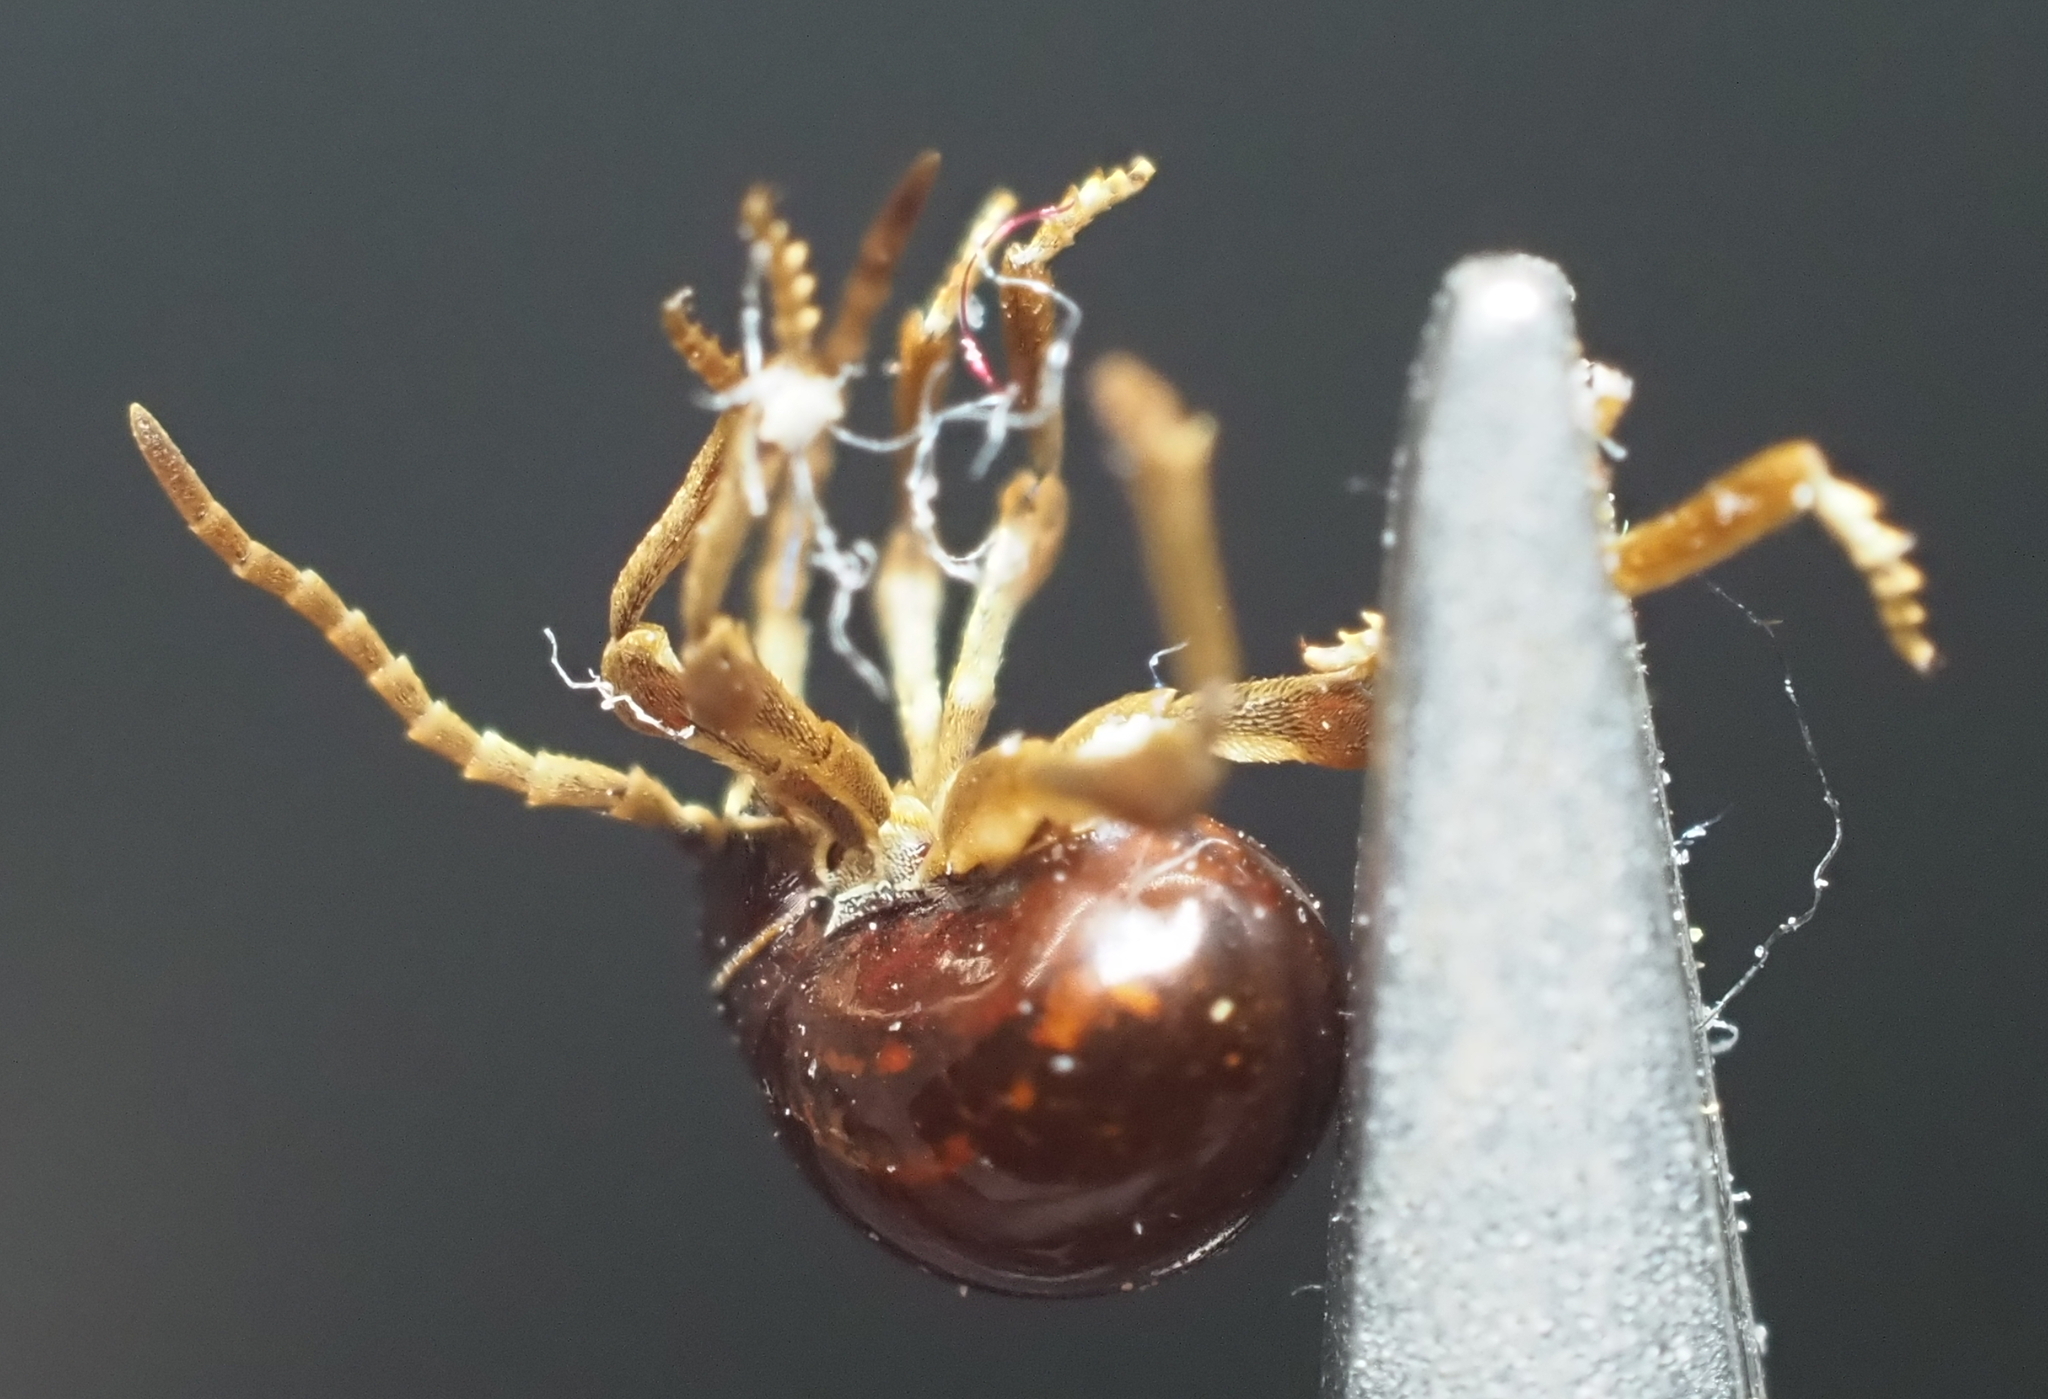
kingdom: Animalia
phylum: Arthropoda
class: Insecta
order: Coleoptera
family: Ptinidae
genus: Gibbium
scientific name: Gibbium aequinoctiale
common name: Smooth spider beetle
